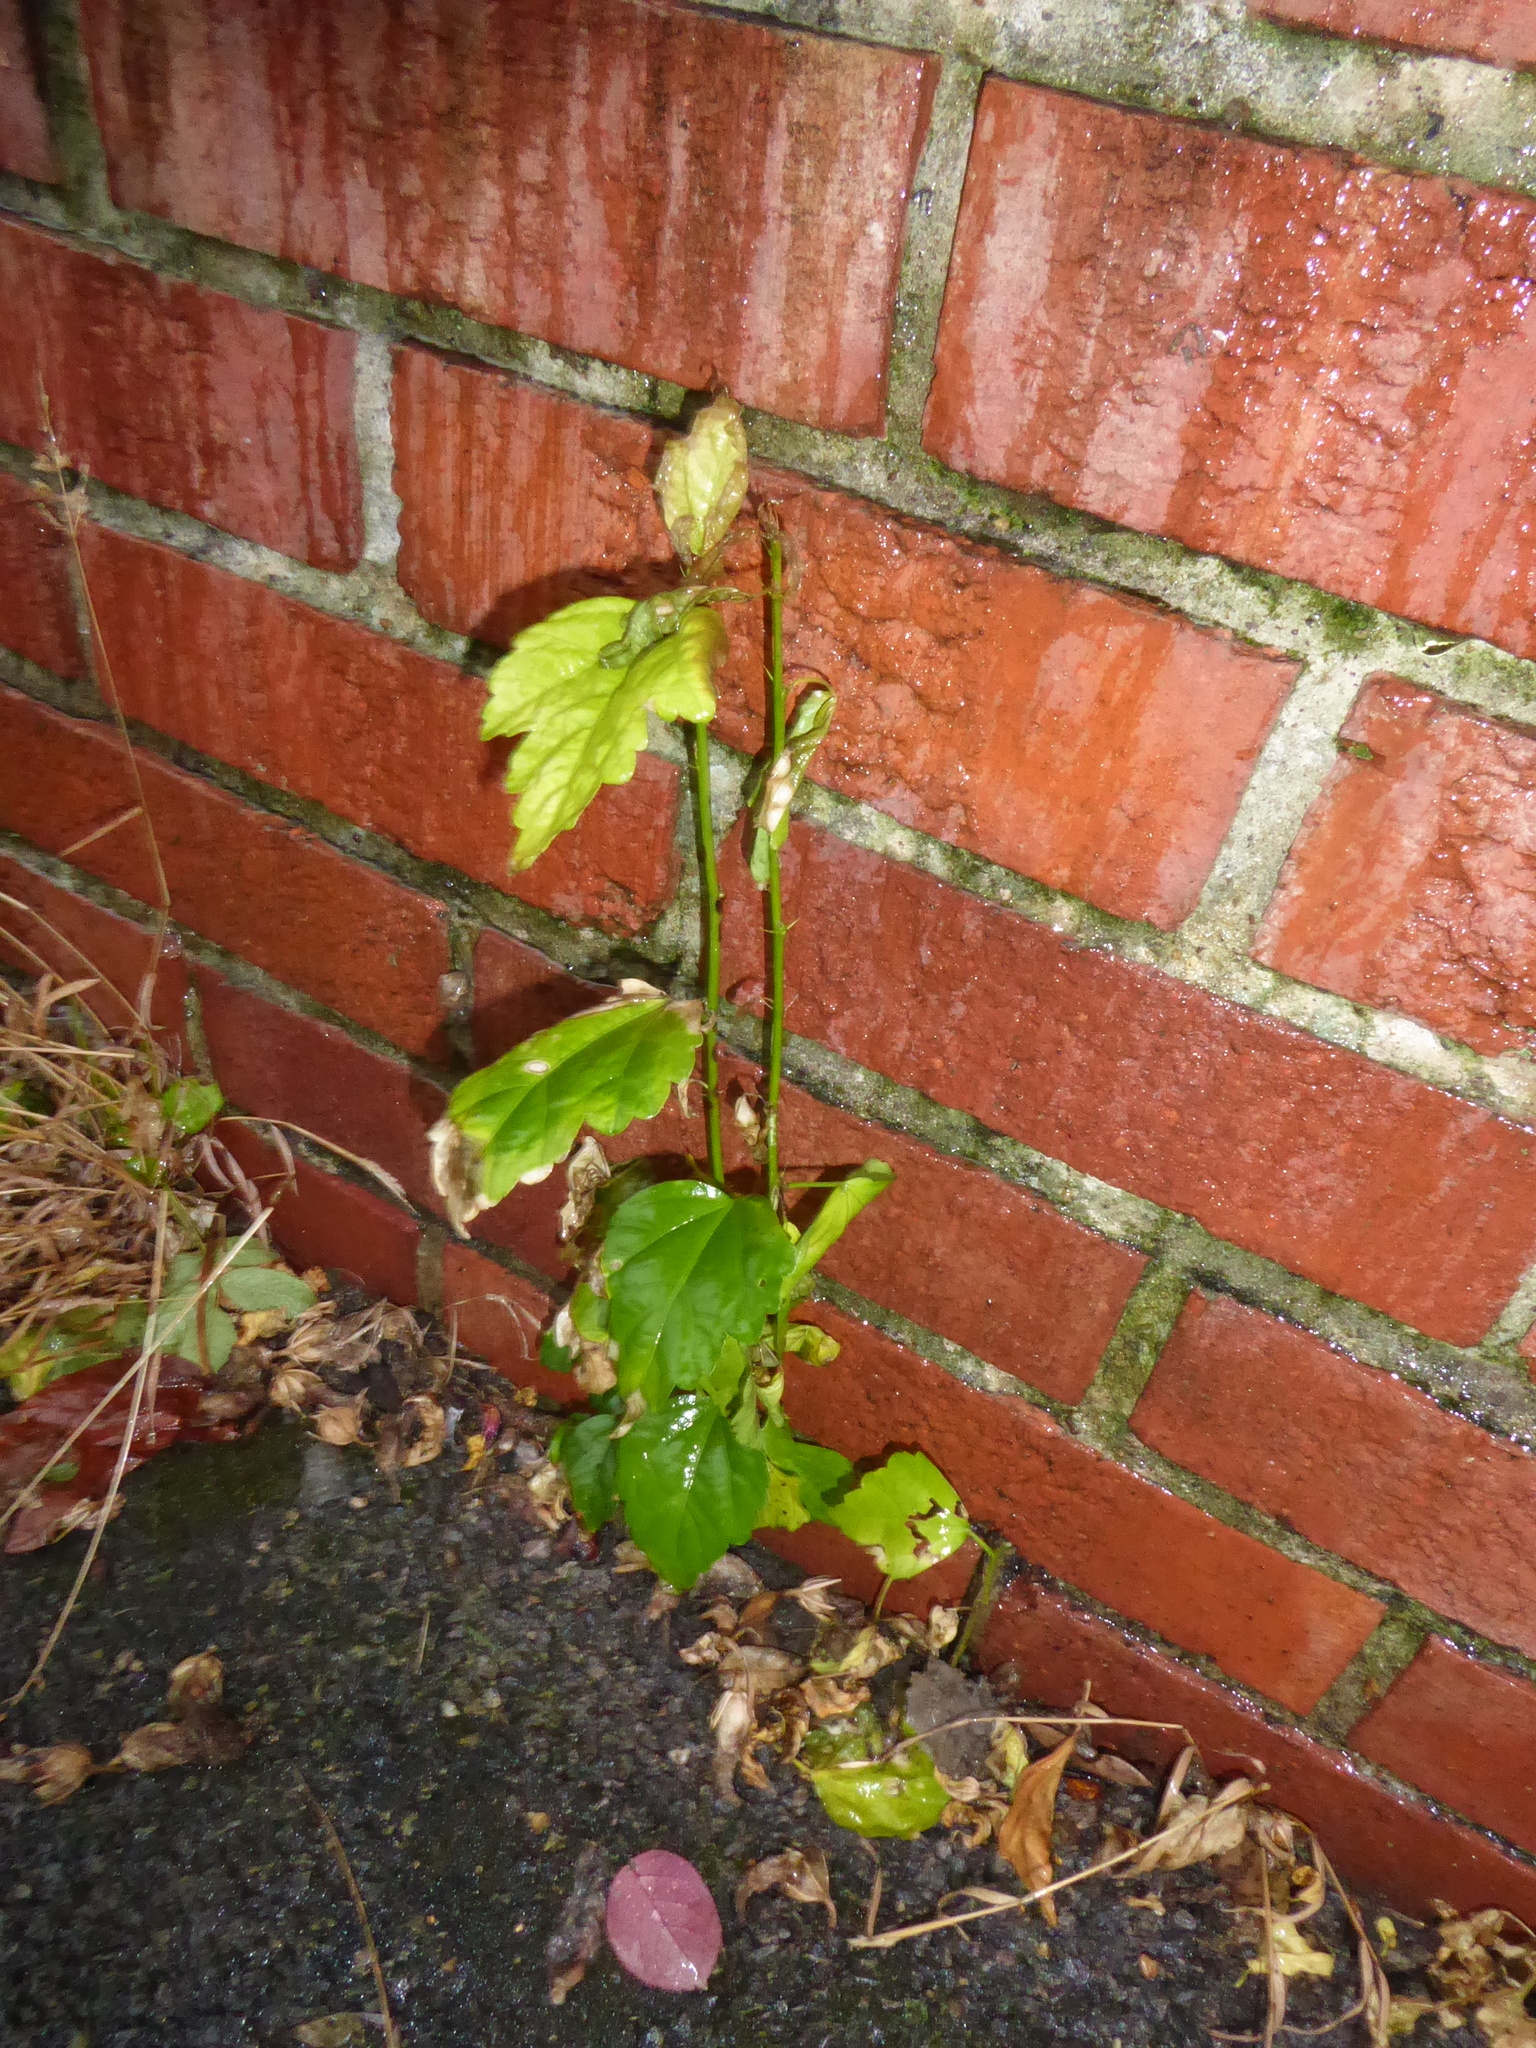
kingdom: Plantae
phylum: Tracheophyta
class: Magnoliopsida
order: Malvales
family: Malvaceae
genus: Hibiscus
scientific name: Hibiscus syriacus
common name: Syrian ketmia
